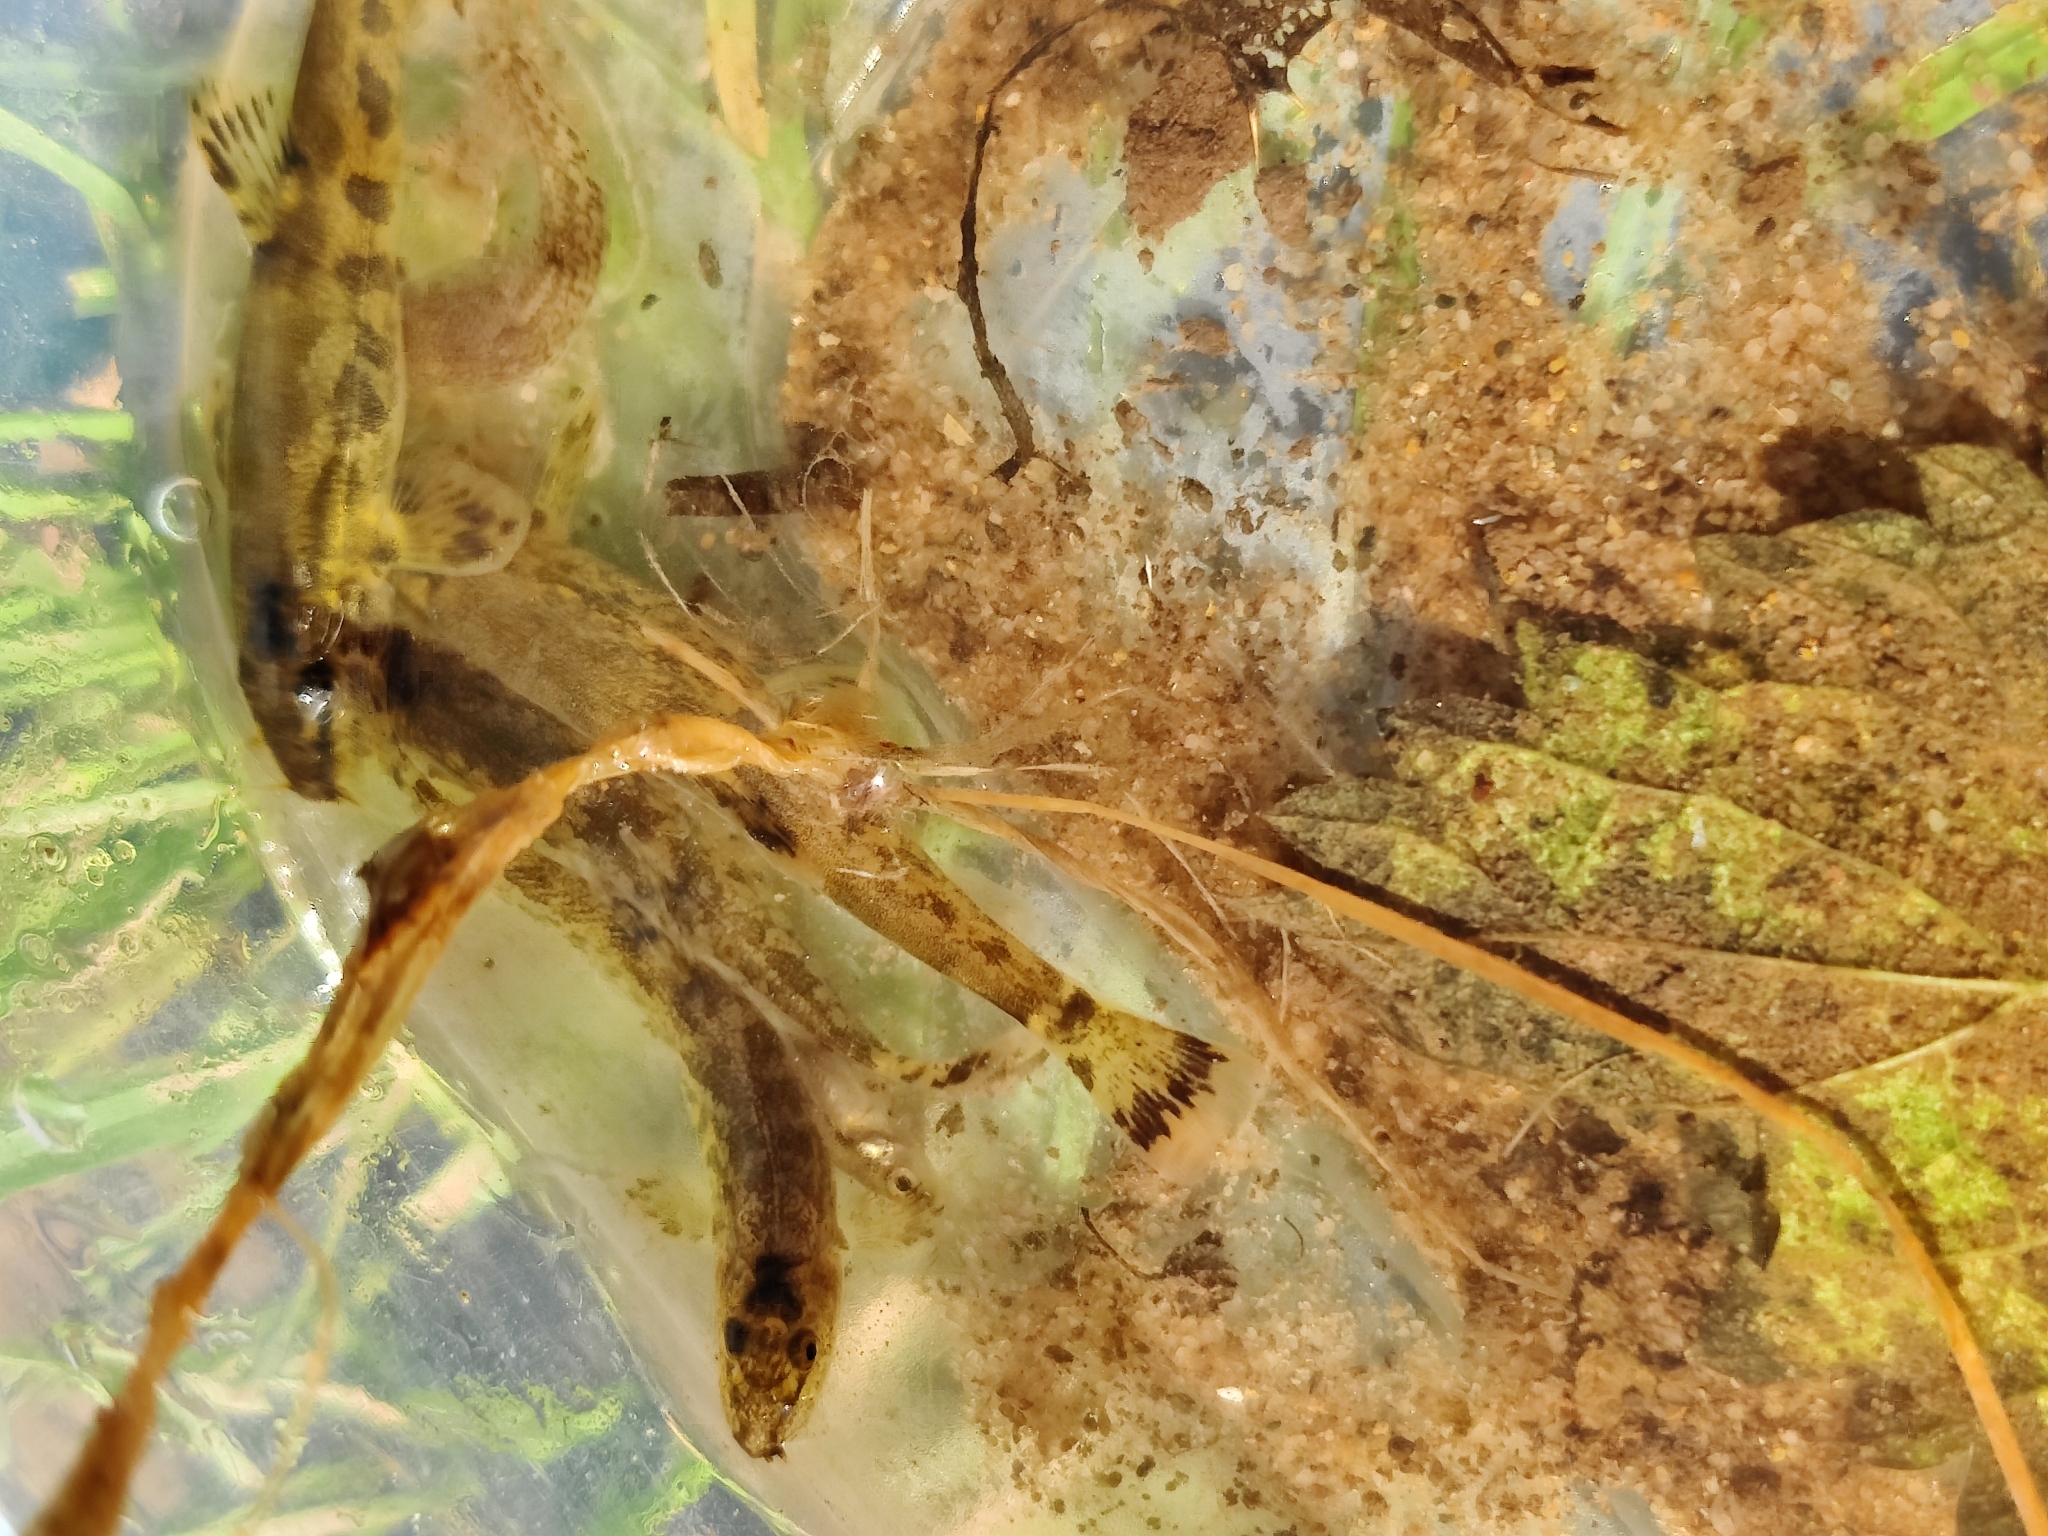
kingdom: Animalia
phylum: Chordata
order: Cypriniformes
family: Nemacheilidae
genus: Barbatula
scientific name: Barbatula barbatula
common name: Stone loach
